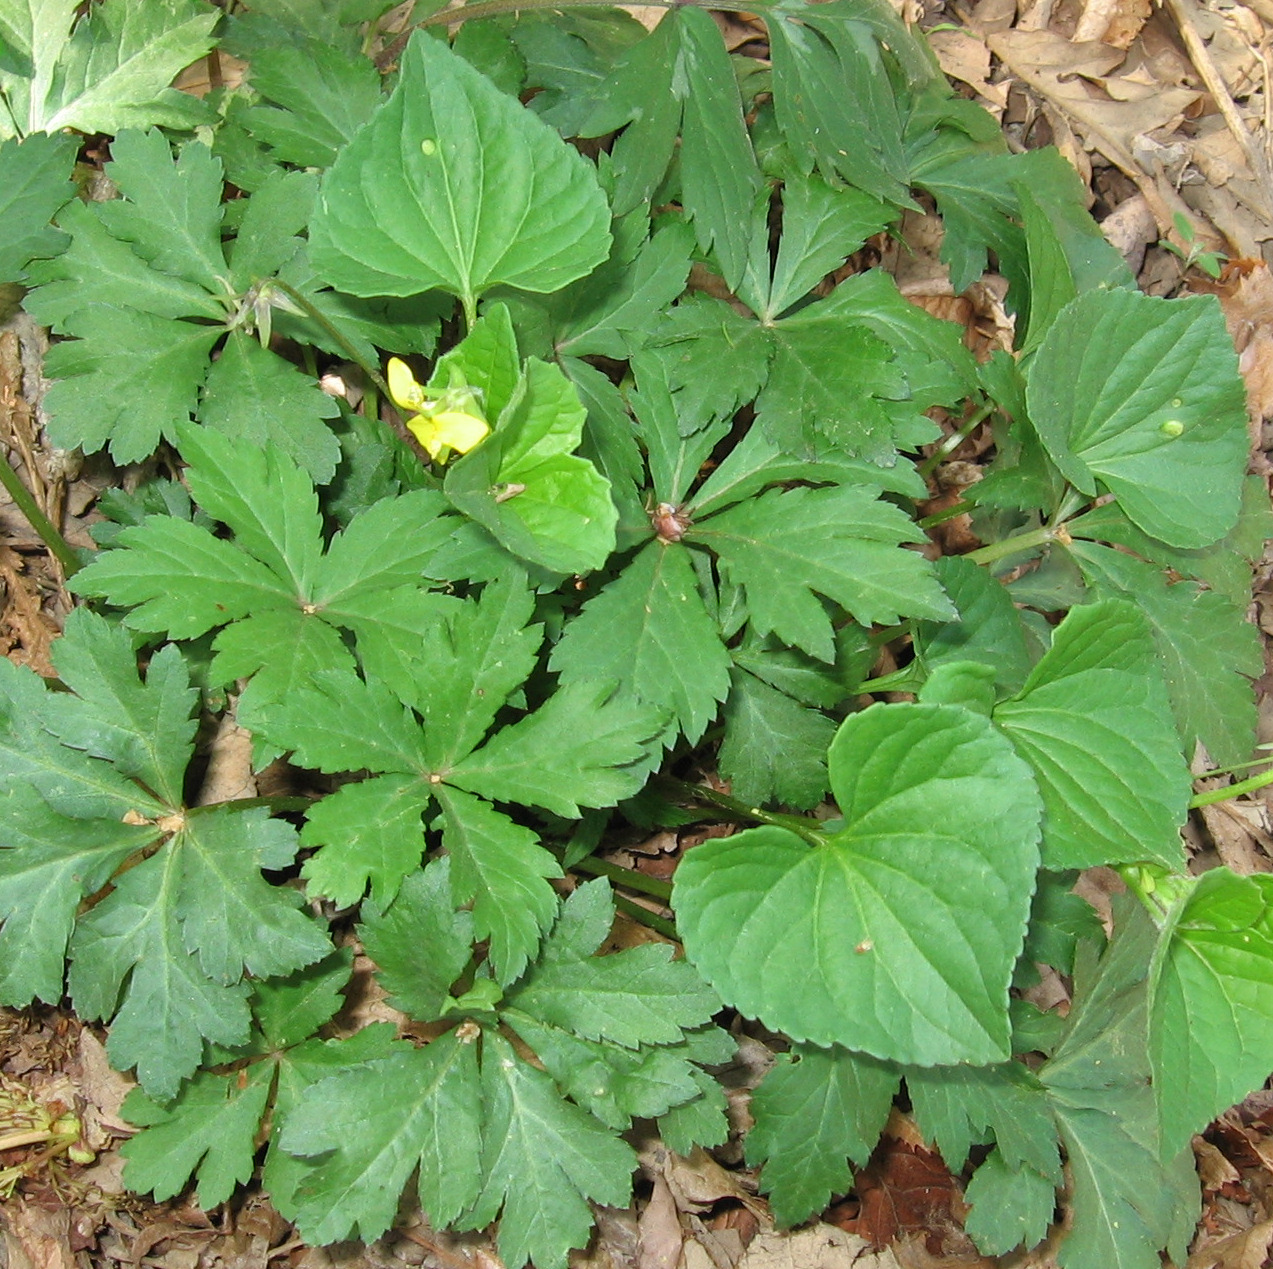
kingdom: Plantae
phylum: Tracheophyta
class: Magnoliopsida
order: Malpighiales
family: Violaceae
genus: Viola
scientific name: Viola eriocarpa
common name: Smooth yellow violet
